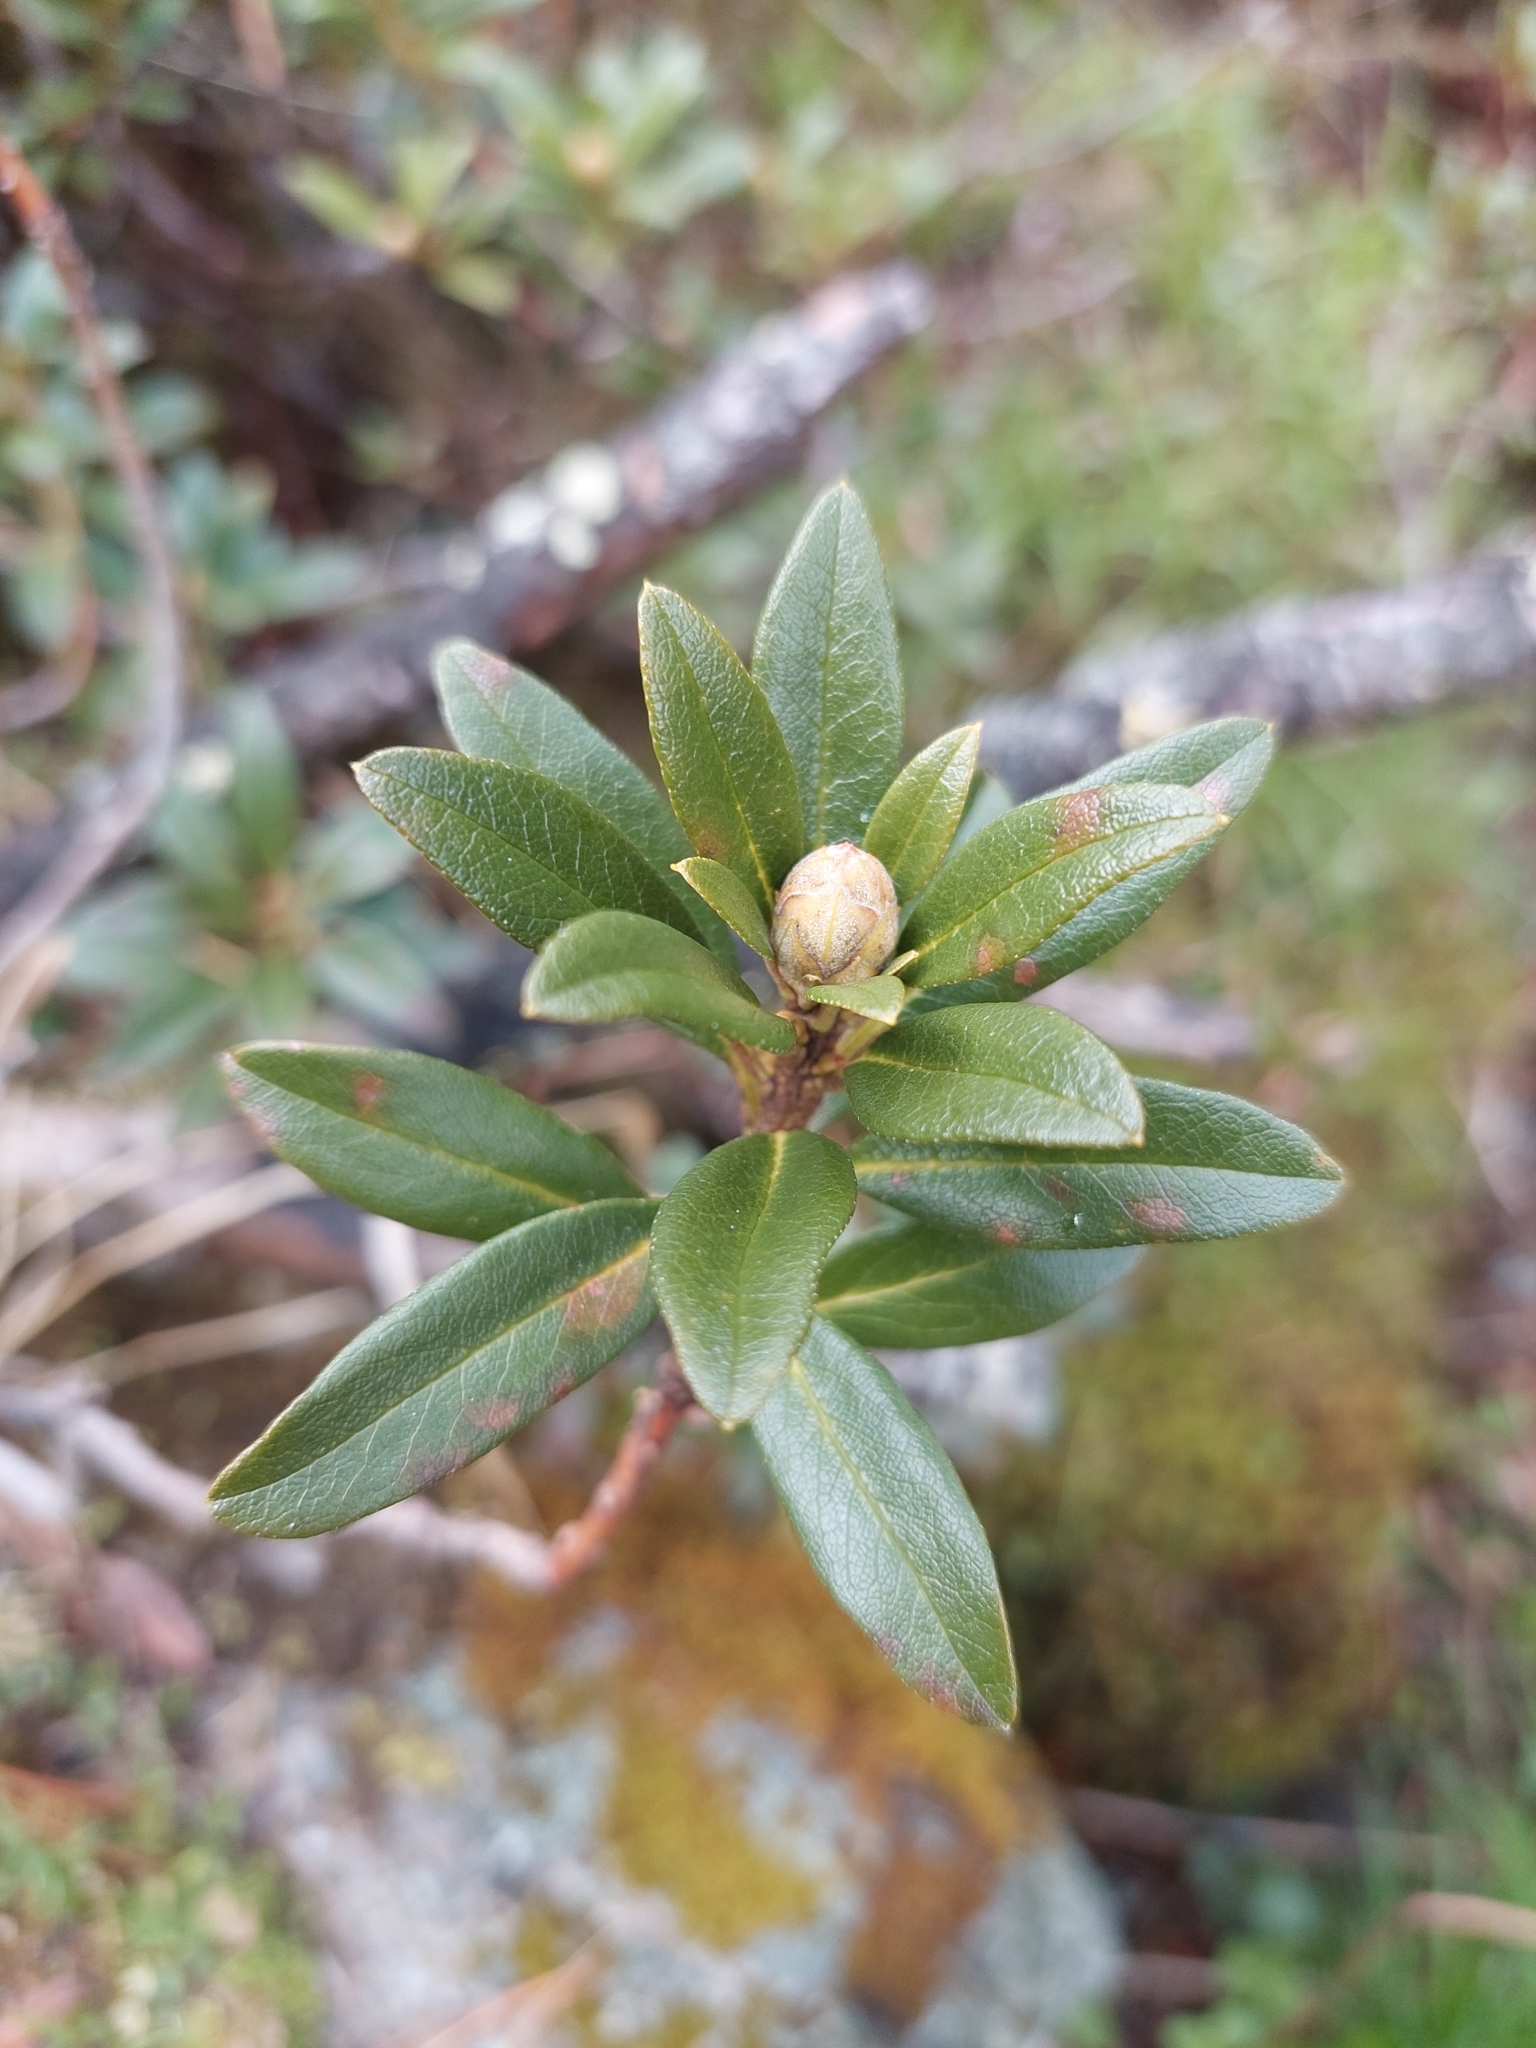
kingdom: Plantae
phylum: Tracheophyta
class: Magnoliopsida
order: Ericales
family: Ericaceae
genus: Rhododendron
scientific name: Rhododendron ferrugineum
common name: Alpenrose
